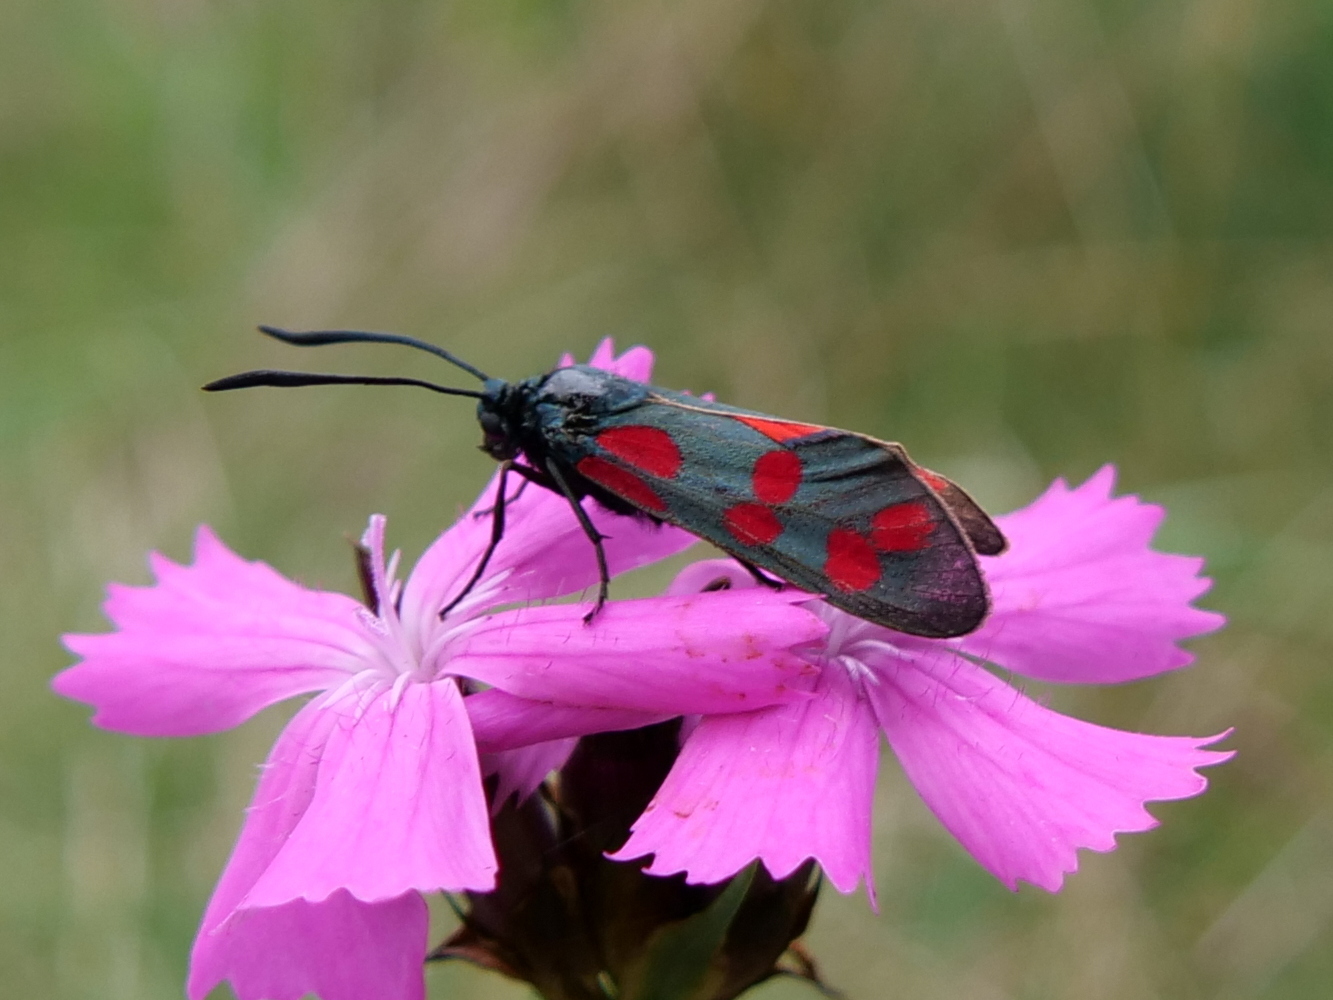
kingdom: Animalia
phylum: Arthropoda
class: Insecta
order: Lepidoptera
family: Zygaenidae
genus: Zygaena
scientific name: Zygaena filipendulae
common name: Six-spot burnet
